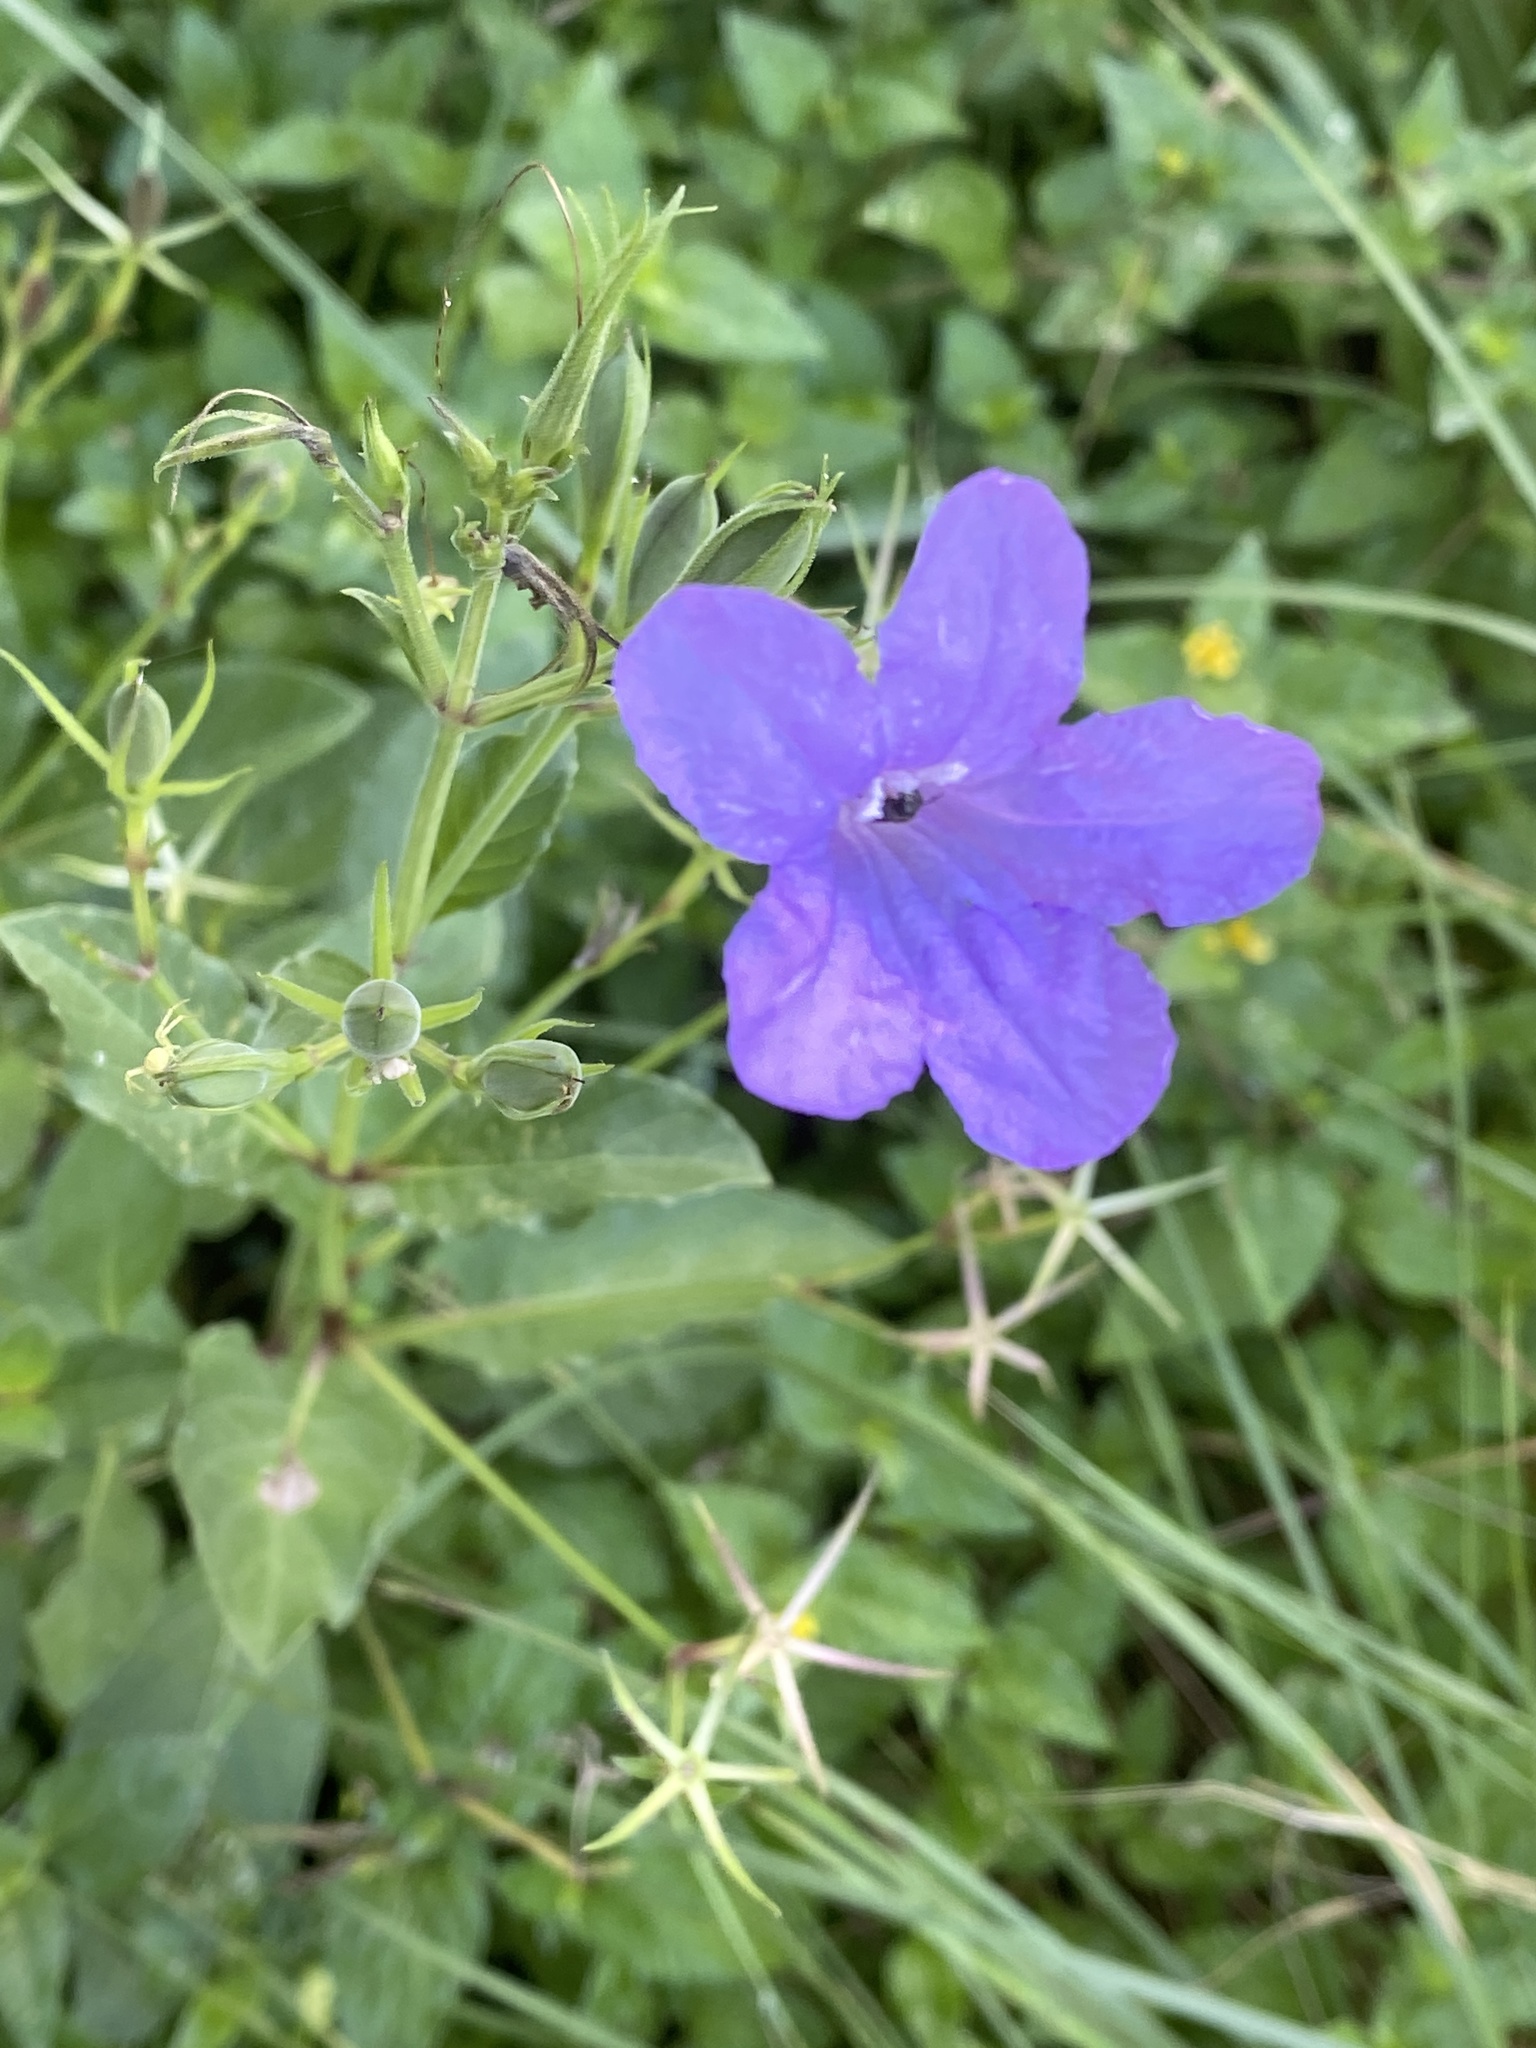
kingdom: Plantae
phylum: Tracheophyta
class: Magnoliopsida
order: Lamiales
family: Acanthaceae
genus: Ruellia
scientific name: Ruellia ciliatiflora
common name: Hairyflower wild petunia
